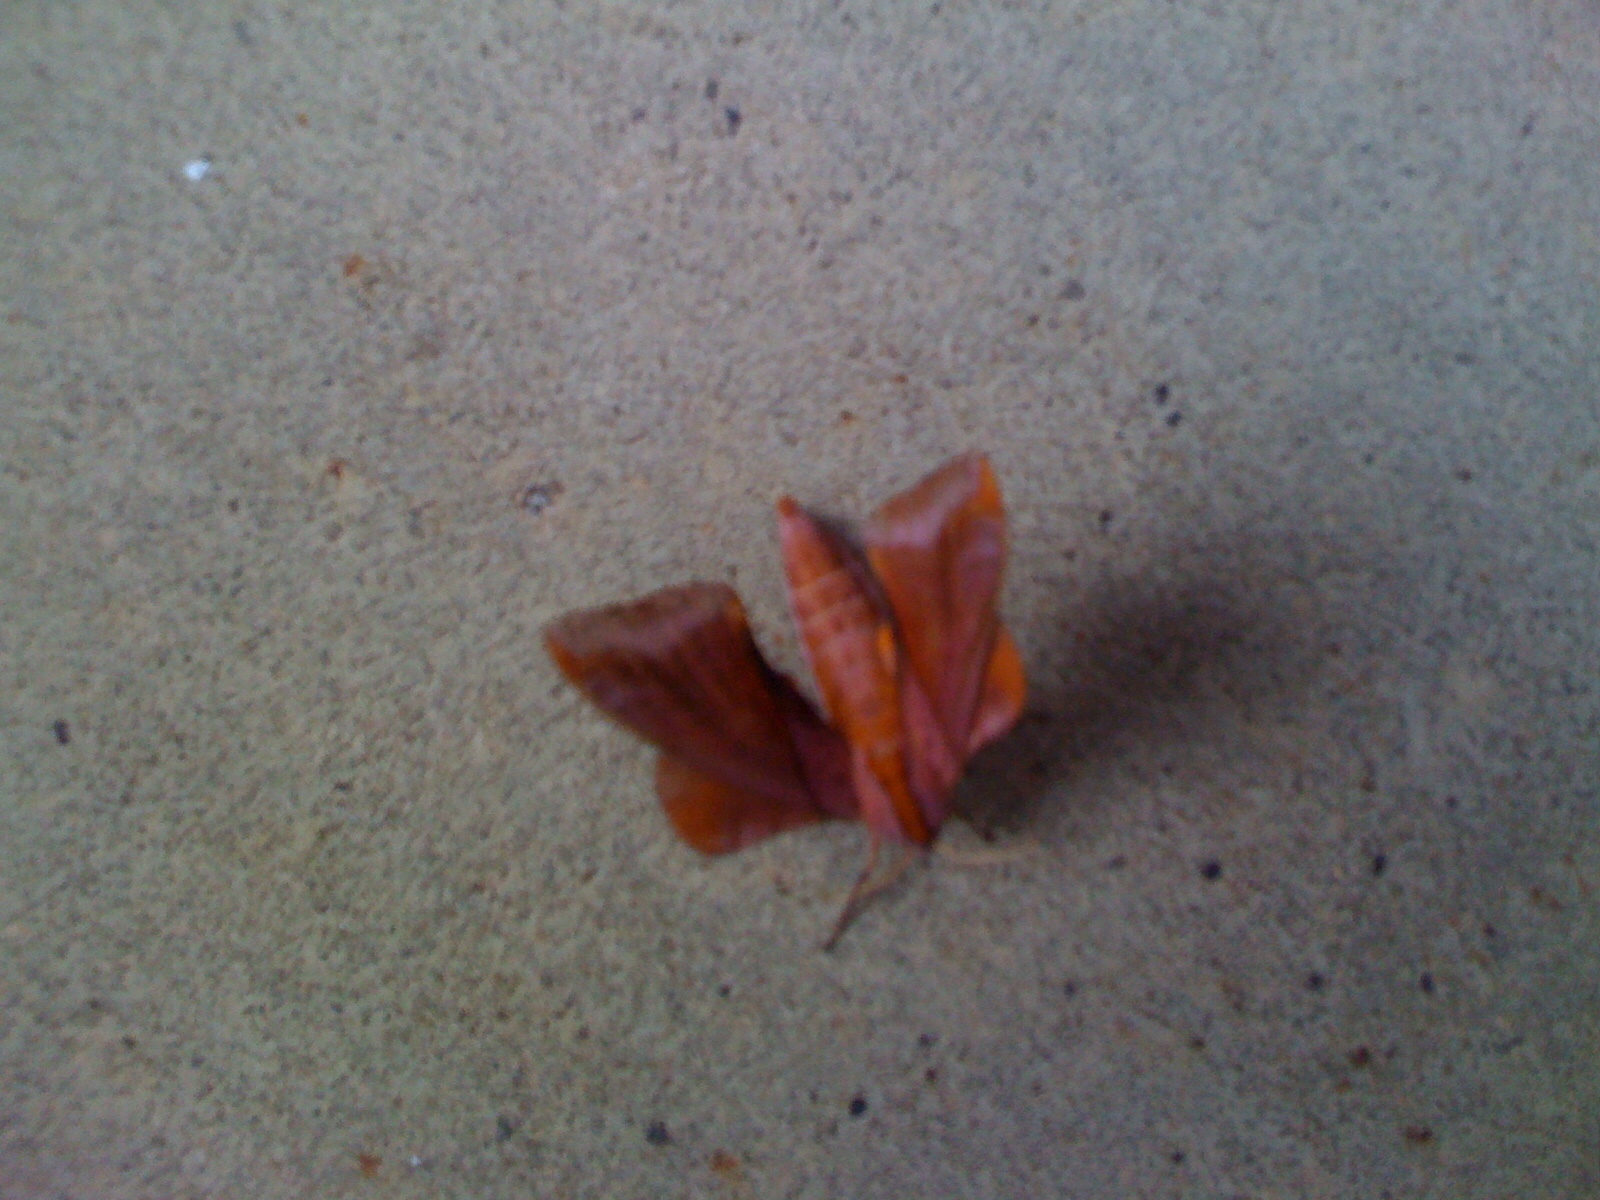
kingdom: Animalia
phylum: Arthropoda
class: Insecta
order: Lepidoptera
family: Sphingidae
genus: Paonias
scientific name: Paonias astylus
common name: Huckleberry sphinx
